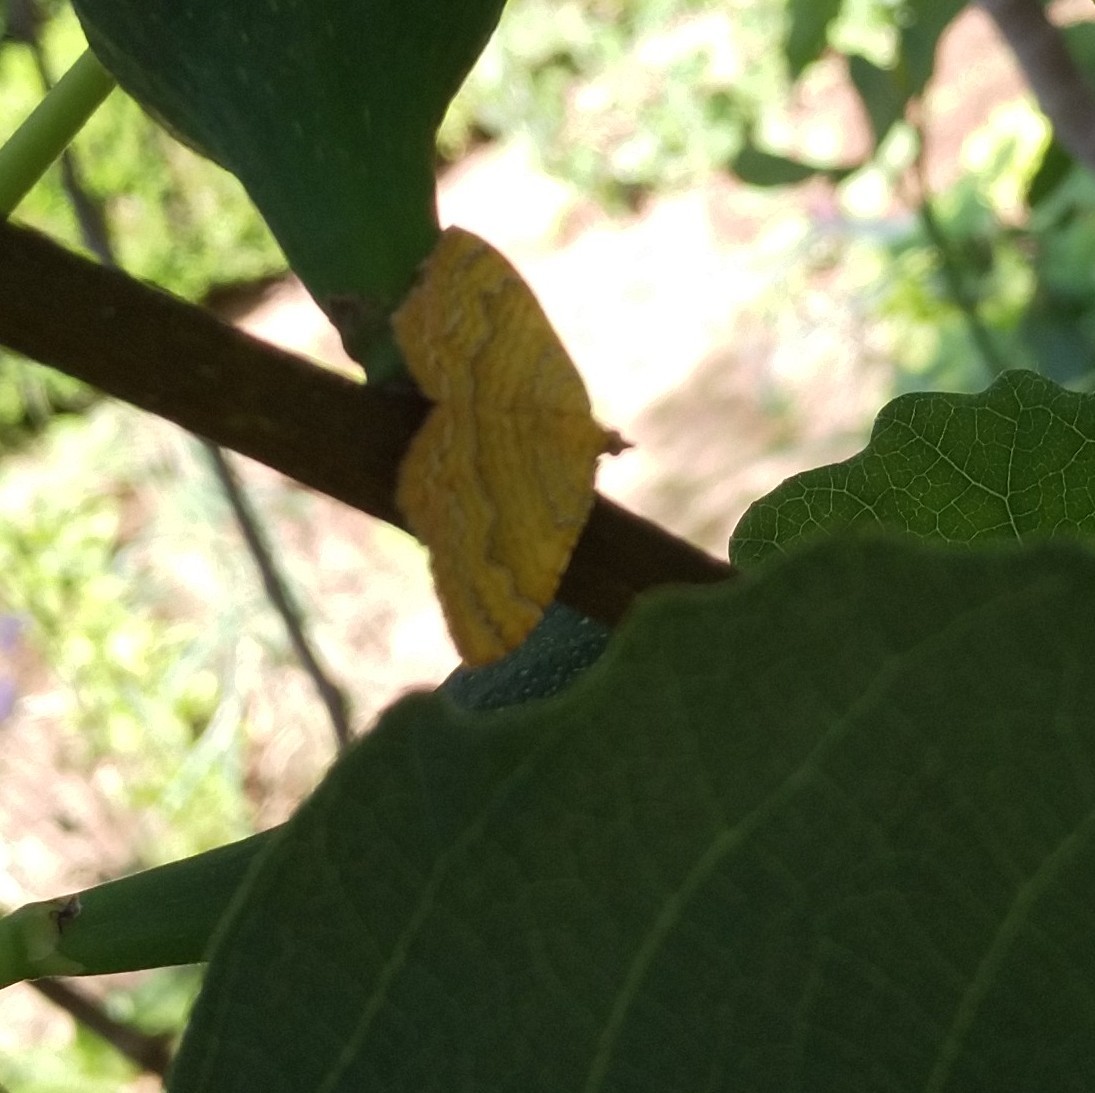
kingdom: Animalia
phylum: Arthropoda
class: Insecta
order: Lepidoptera
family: Geometridae
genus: Camptogramma
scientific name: Camptogramma bilineata
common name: Yellow shell
